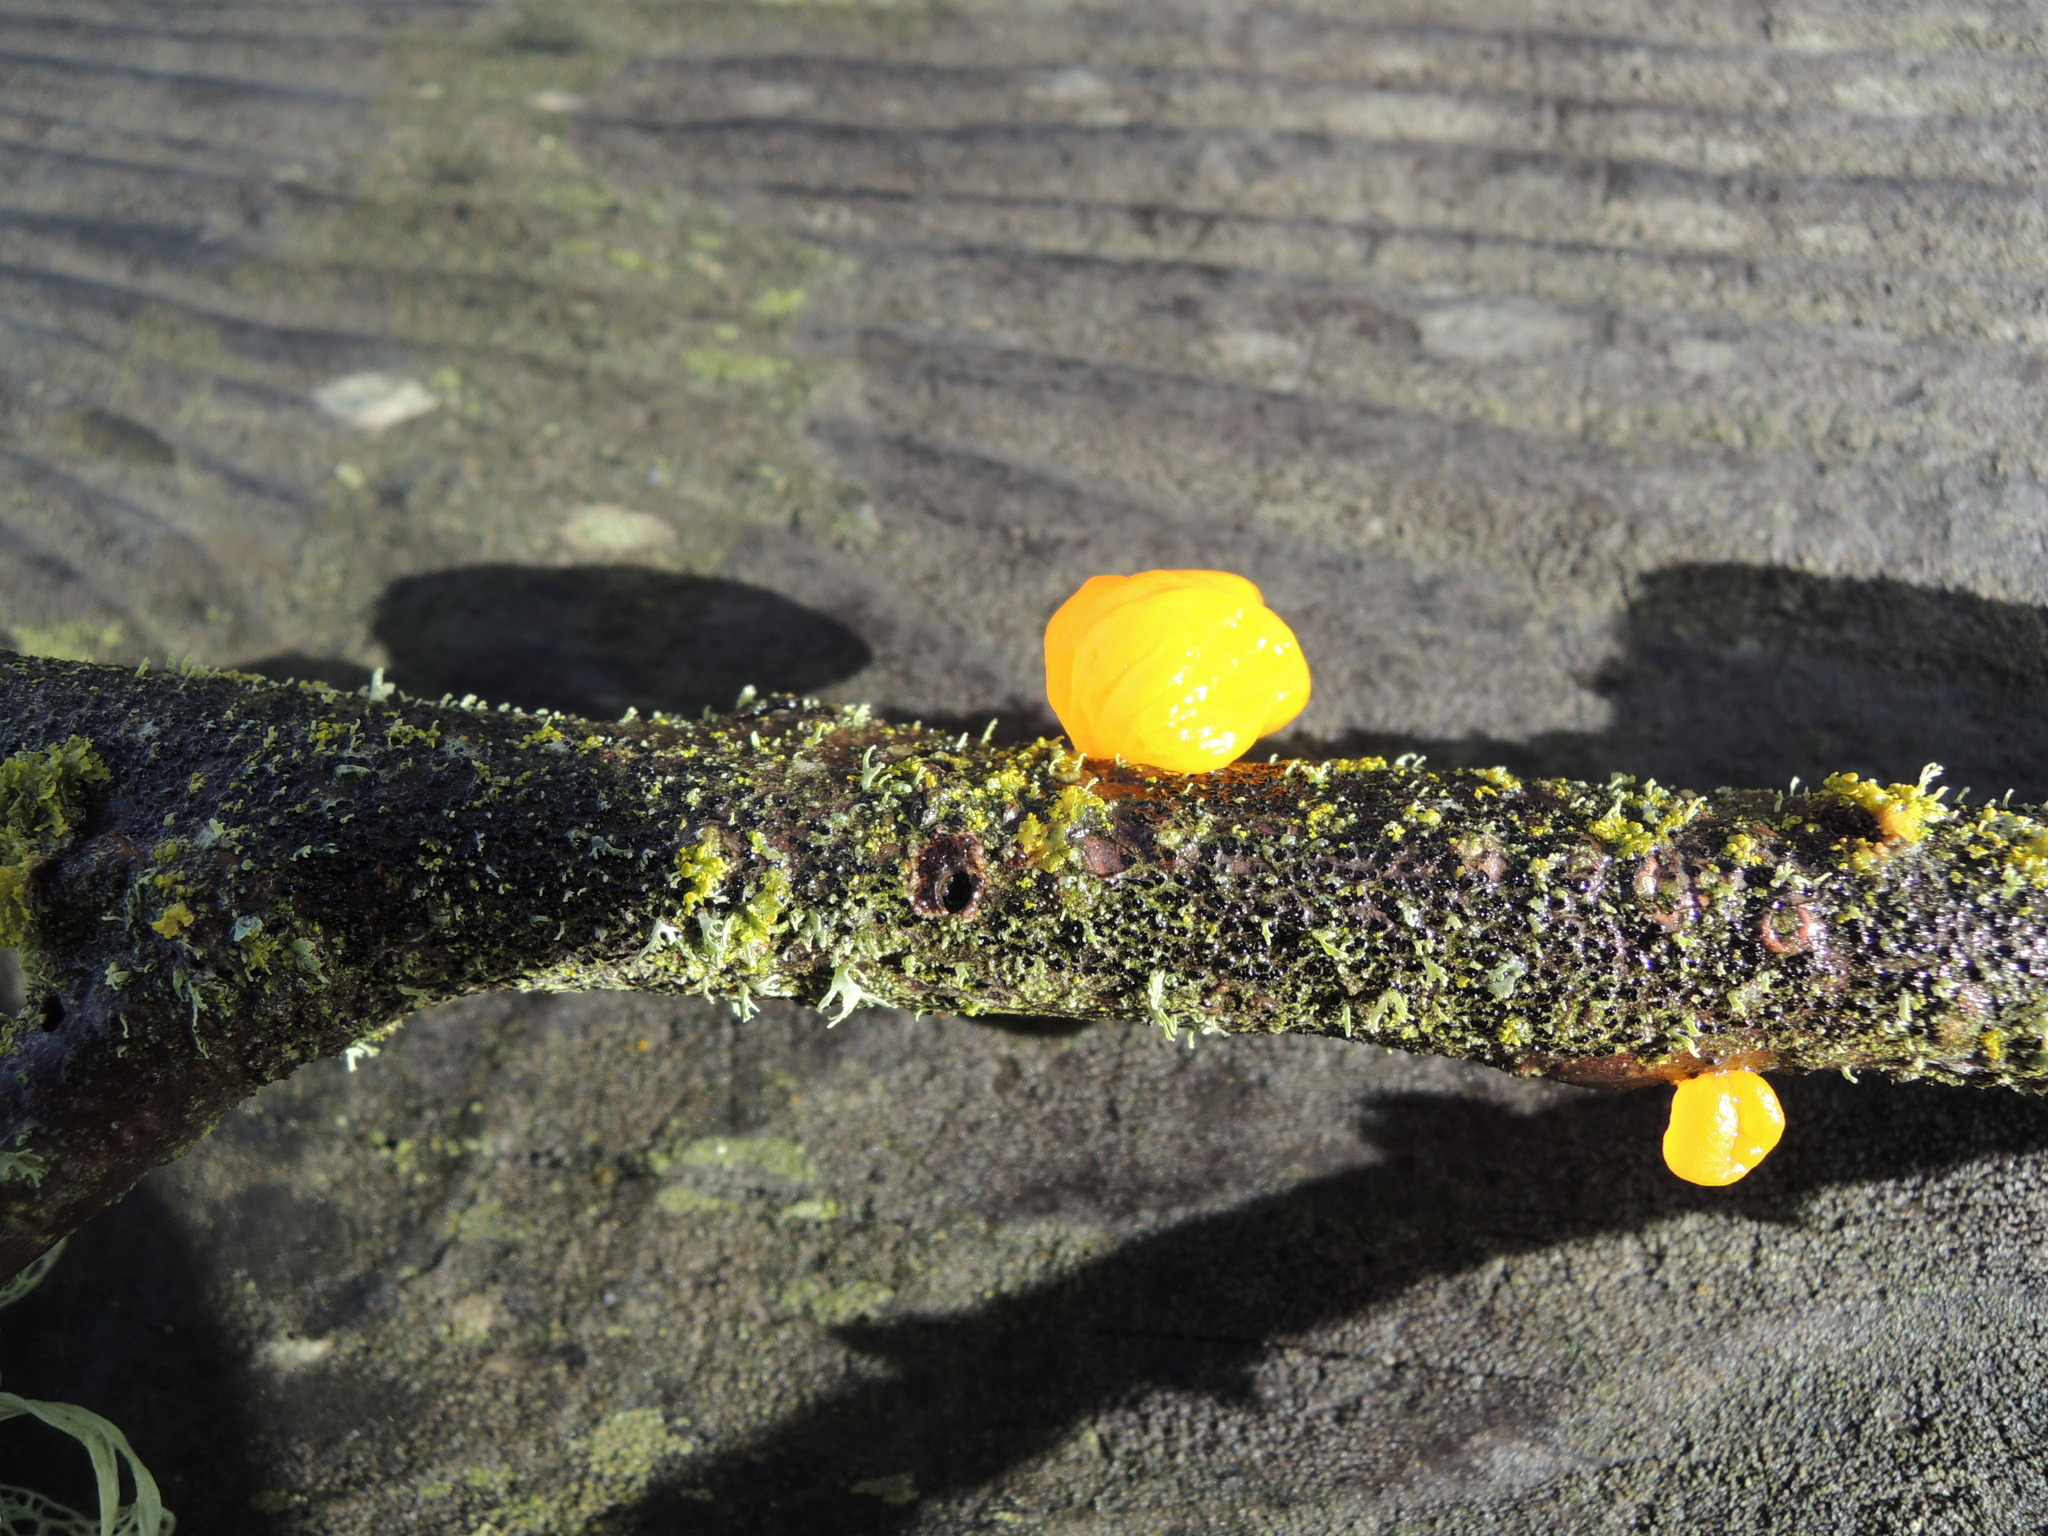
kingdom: Fungi
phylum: Basidiomycota
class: Tremellomycetes
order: Tremellales
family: Tremellaceae
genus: Tremella
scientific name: Tremella mesenterica
